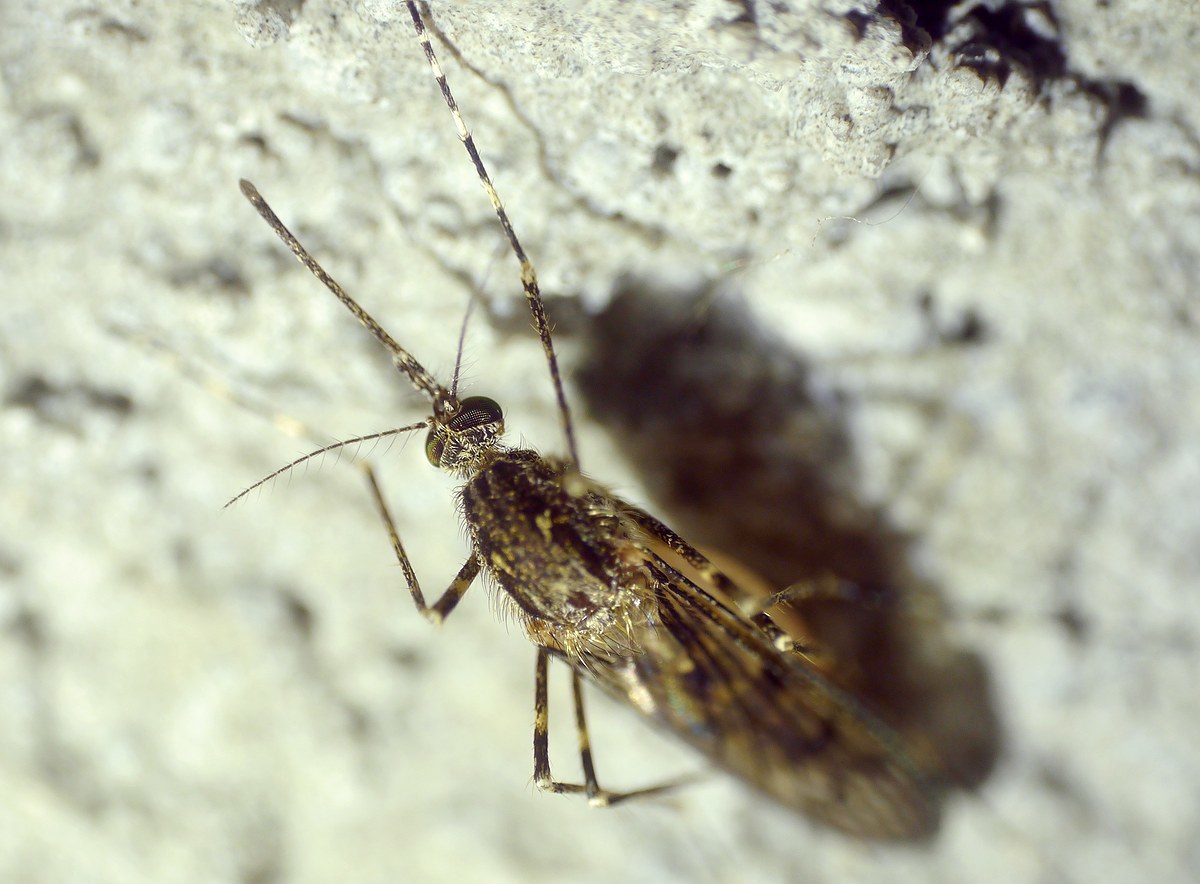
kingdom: Animalia
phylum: Arthropoda
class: Insecta
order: Diptera
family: Culicidae
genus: Culiseta
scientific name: Culiseta annulata
